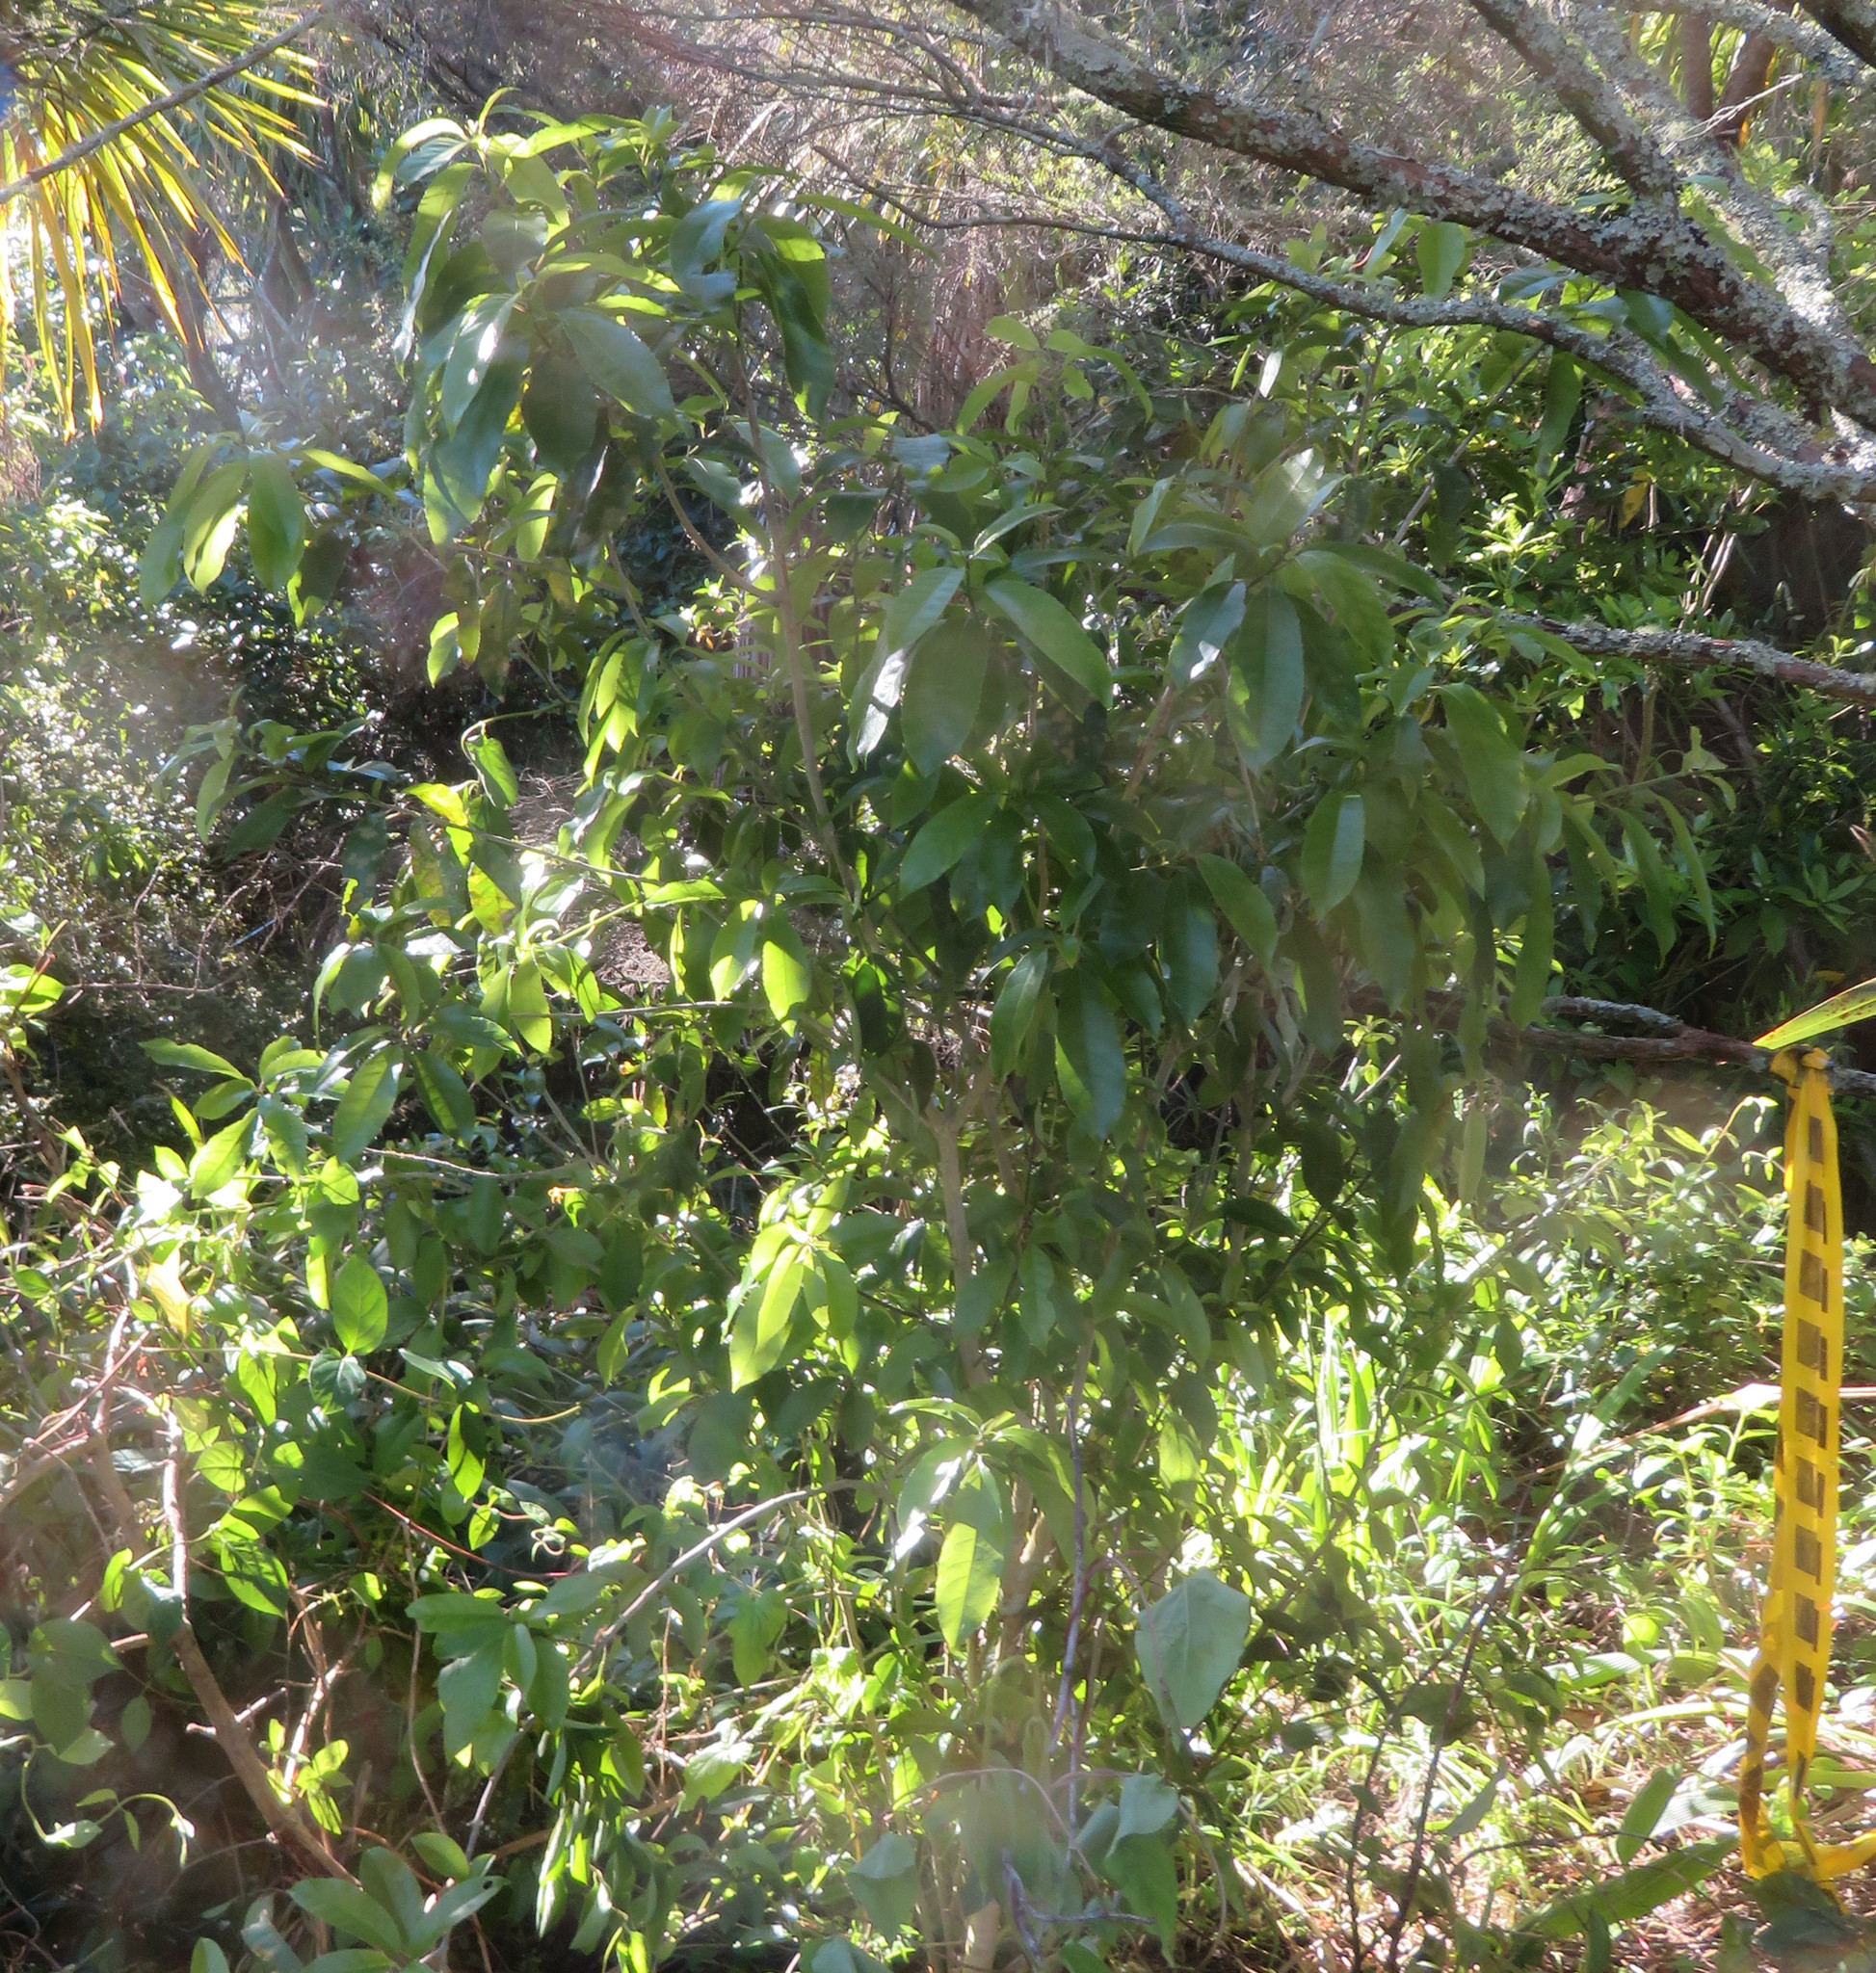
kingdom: Plantae
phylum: Tracheophyta
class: Magnoliopsida
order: Malpighiales
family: Violaceae
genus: Melicytus
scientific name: Melicytus ramiflorus
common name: Mahoe
